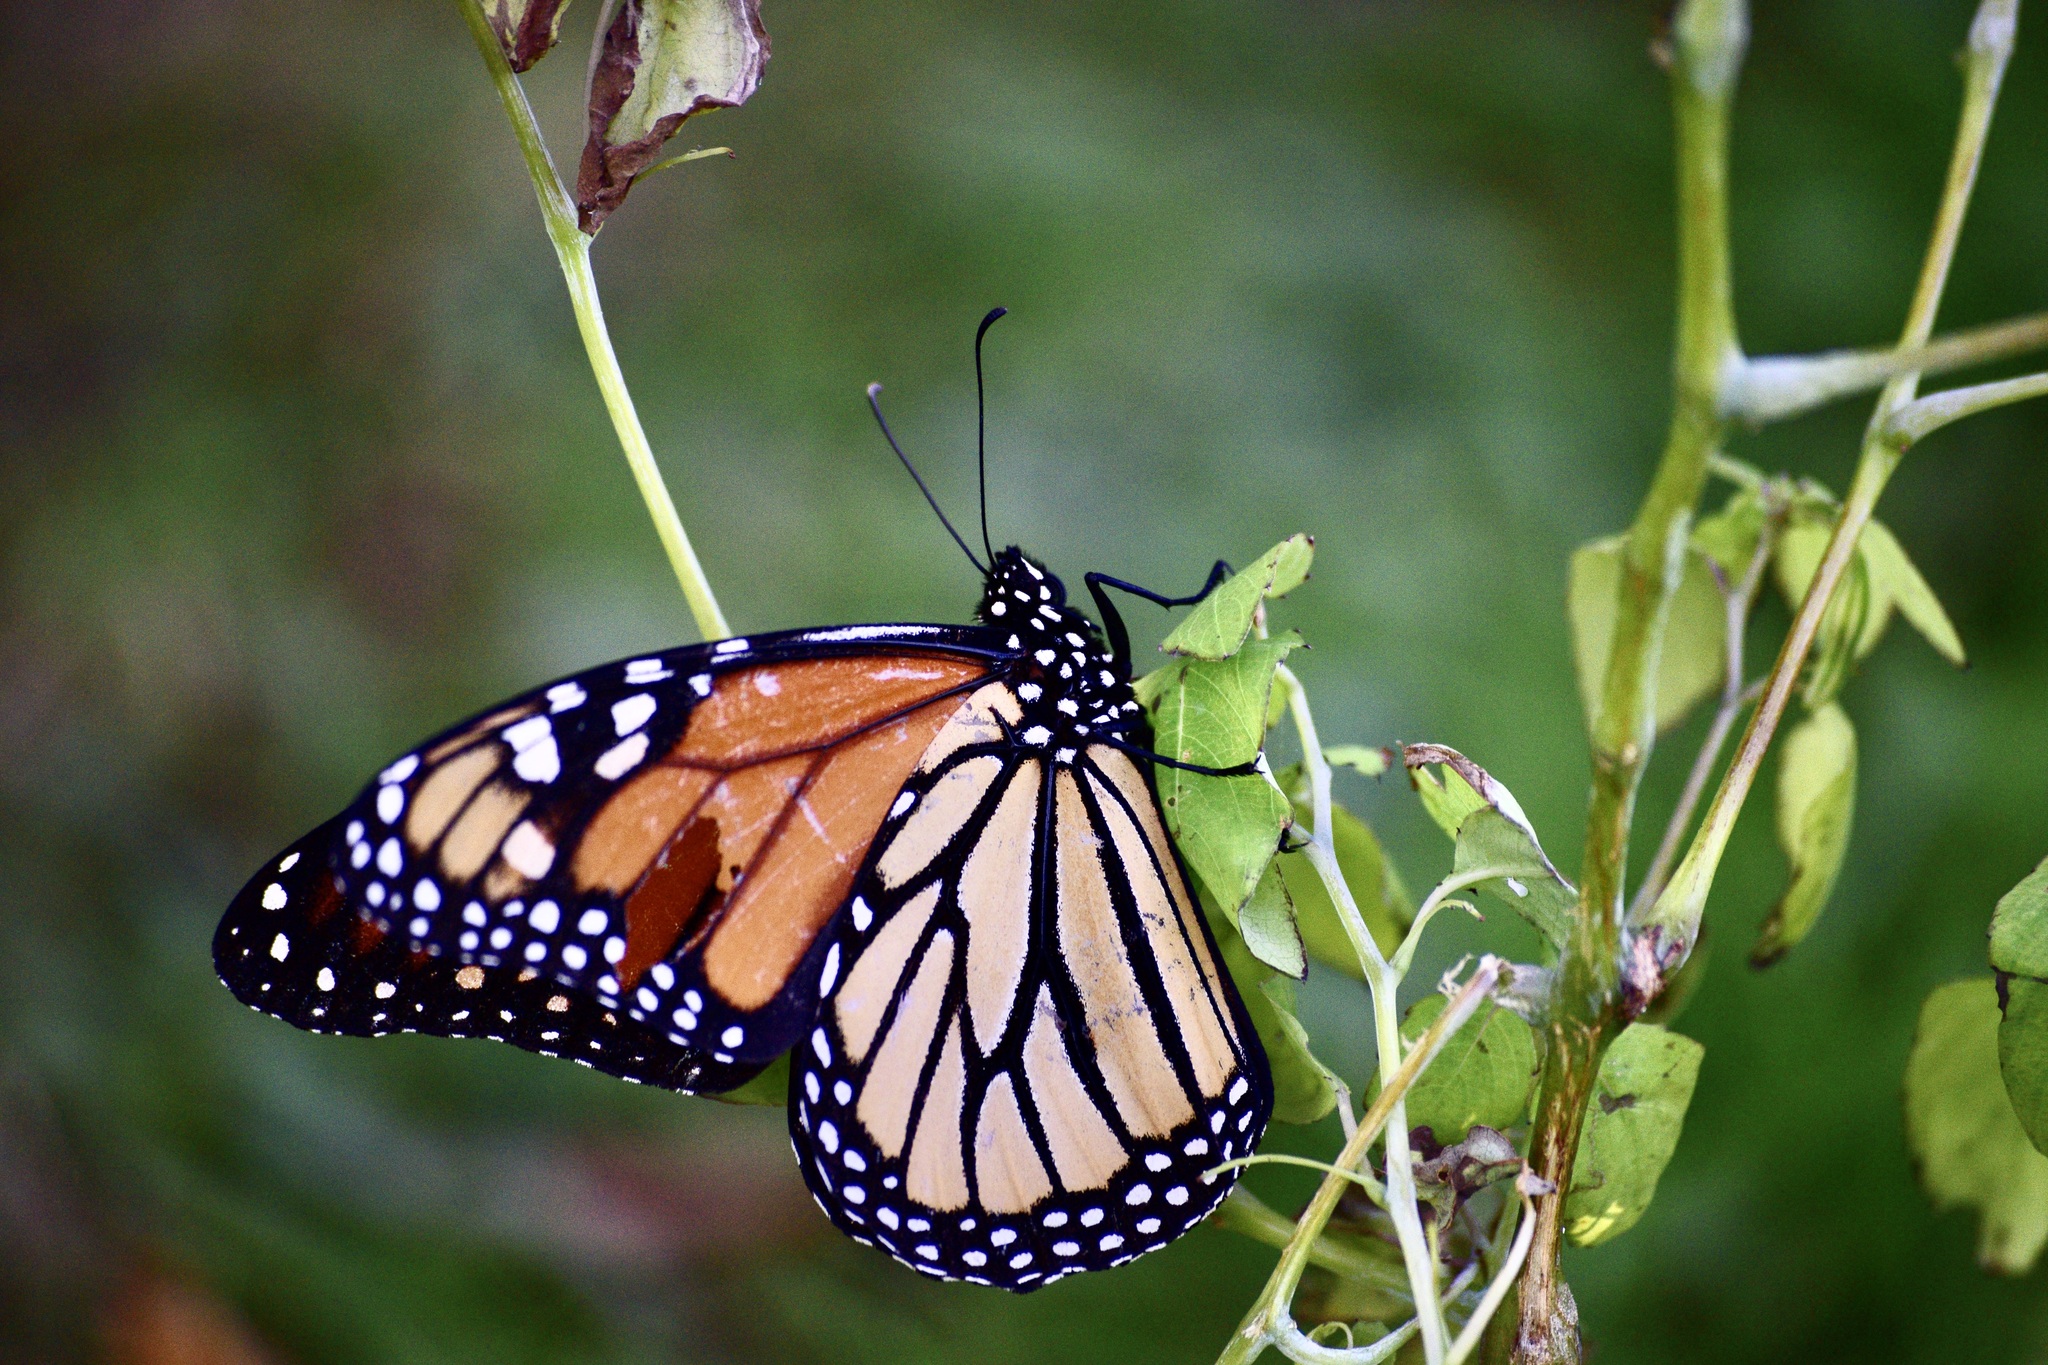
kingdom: Animalia
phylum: Arthropoda
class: Insecta
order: Lepidoptera
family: Nymphalidae
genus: Danaus
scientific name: Danaus plexippus
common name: Monarch
